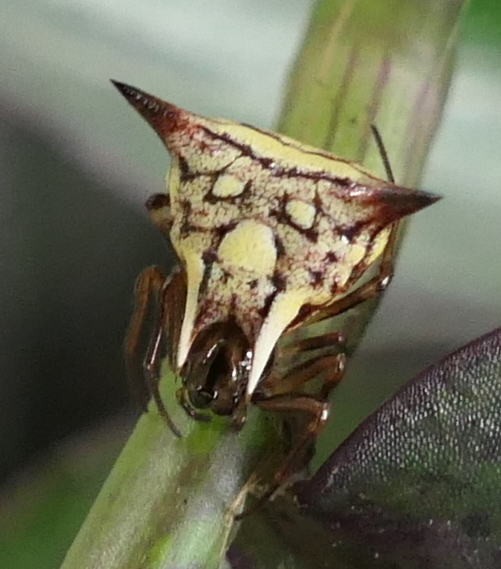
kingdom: Animalia
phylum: Arthropoda
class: Arachnida
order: Araneae
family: Araneidae
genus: Micrathena
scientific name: Micrathena evansi
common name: Orb weavers
